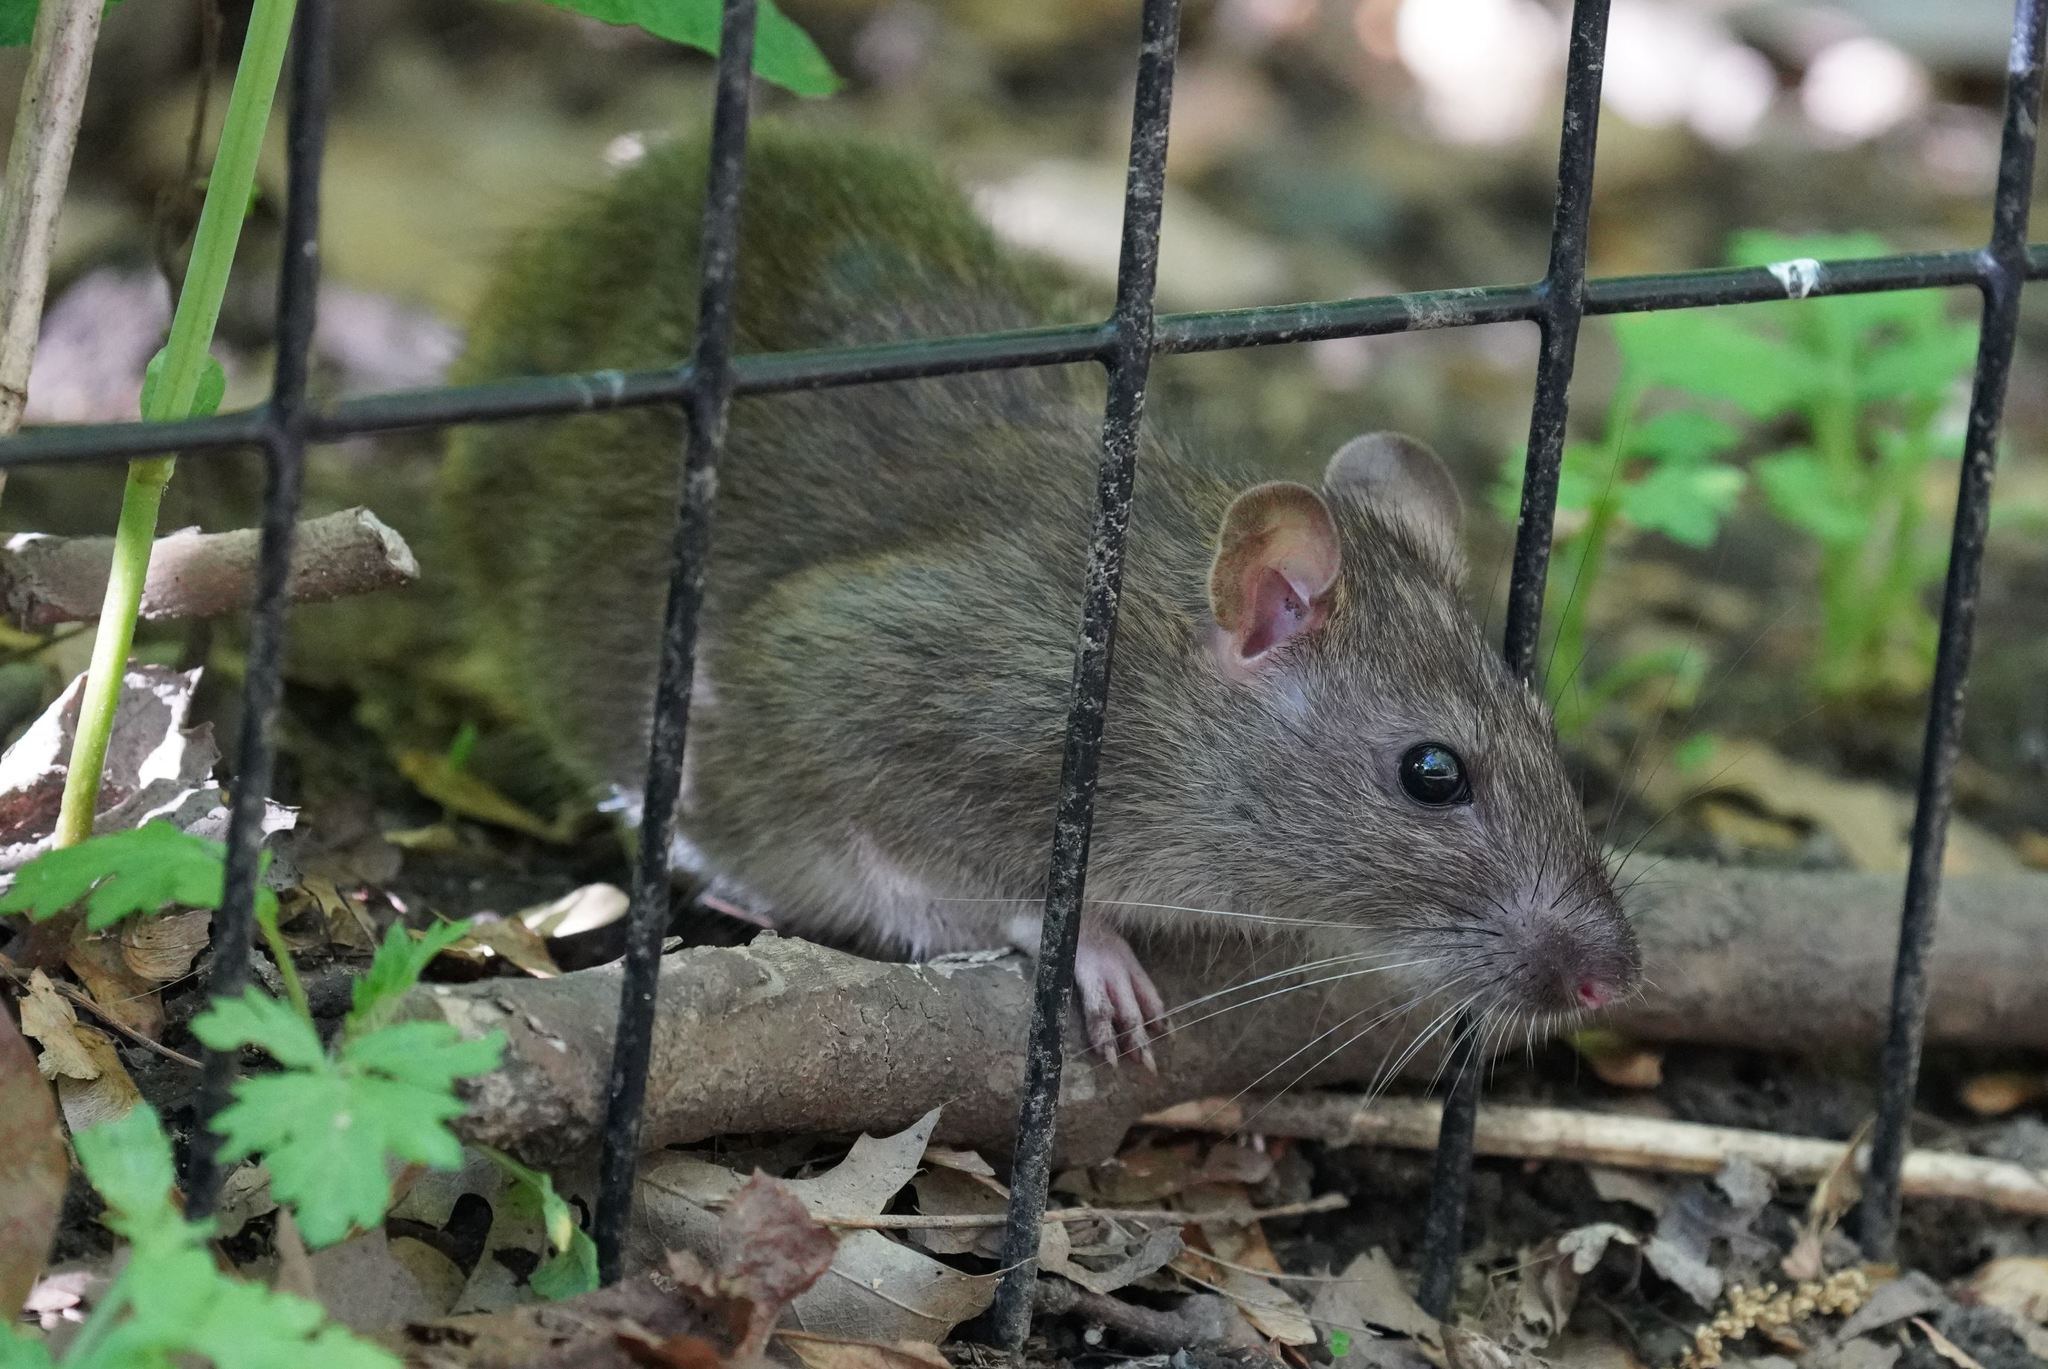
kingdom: Animalia
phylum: Chordata
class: Mammalia
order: Rodentia
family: Muridae
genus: Rattus
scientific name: Rattus norvegicus
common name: Brown rat
